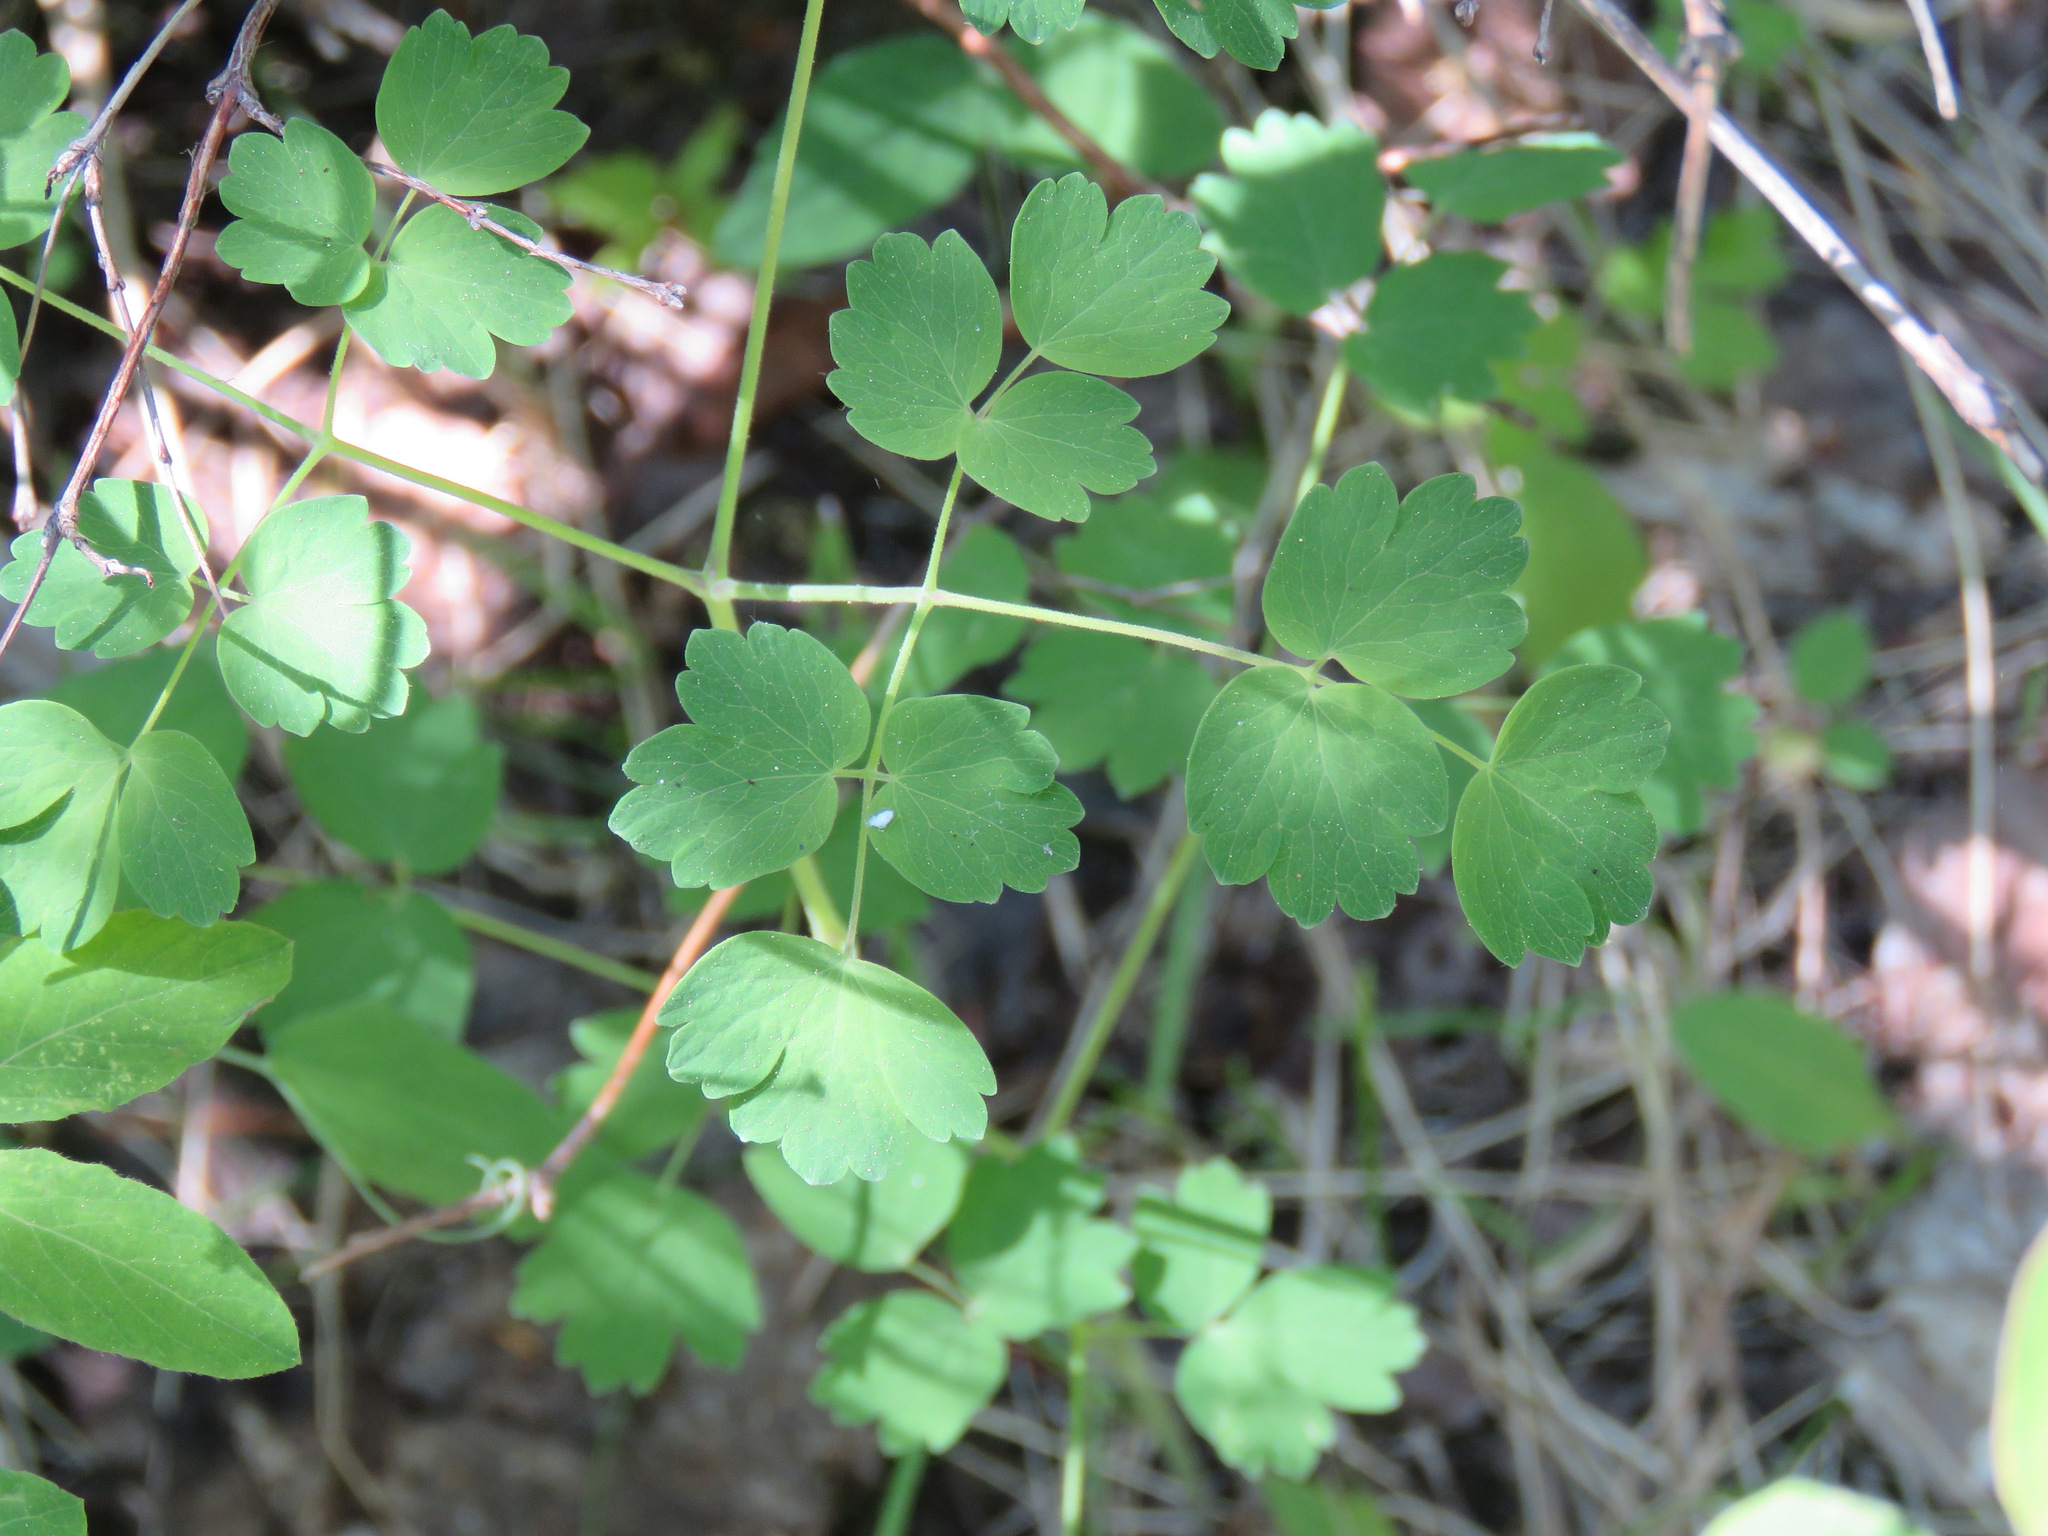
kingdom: Plantae
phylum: Tracheophyta
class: Magnoliopsida
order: Ranunculales
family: Ranunculaceae
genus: Thalictrum
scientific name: Thalictrum occidentale
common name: Western meadow-rue
